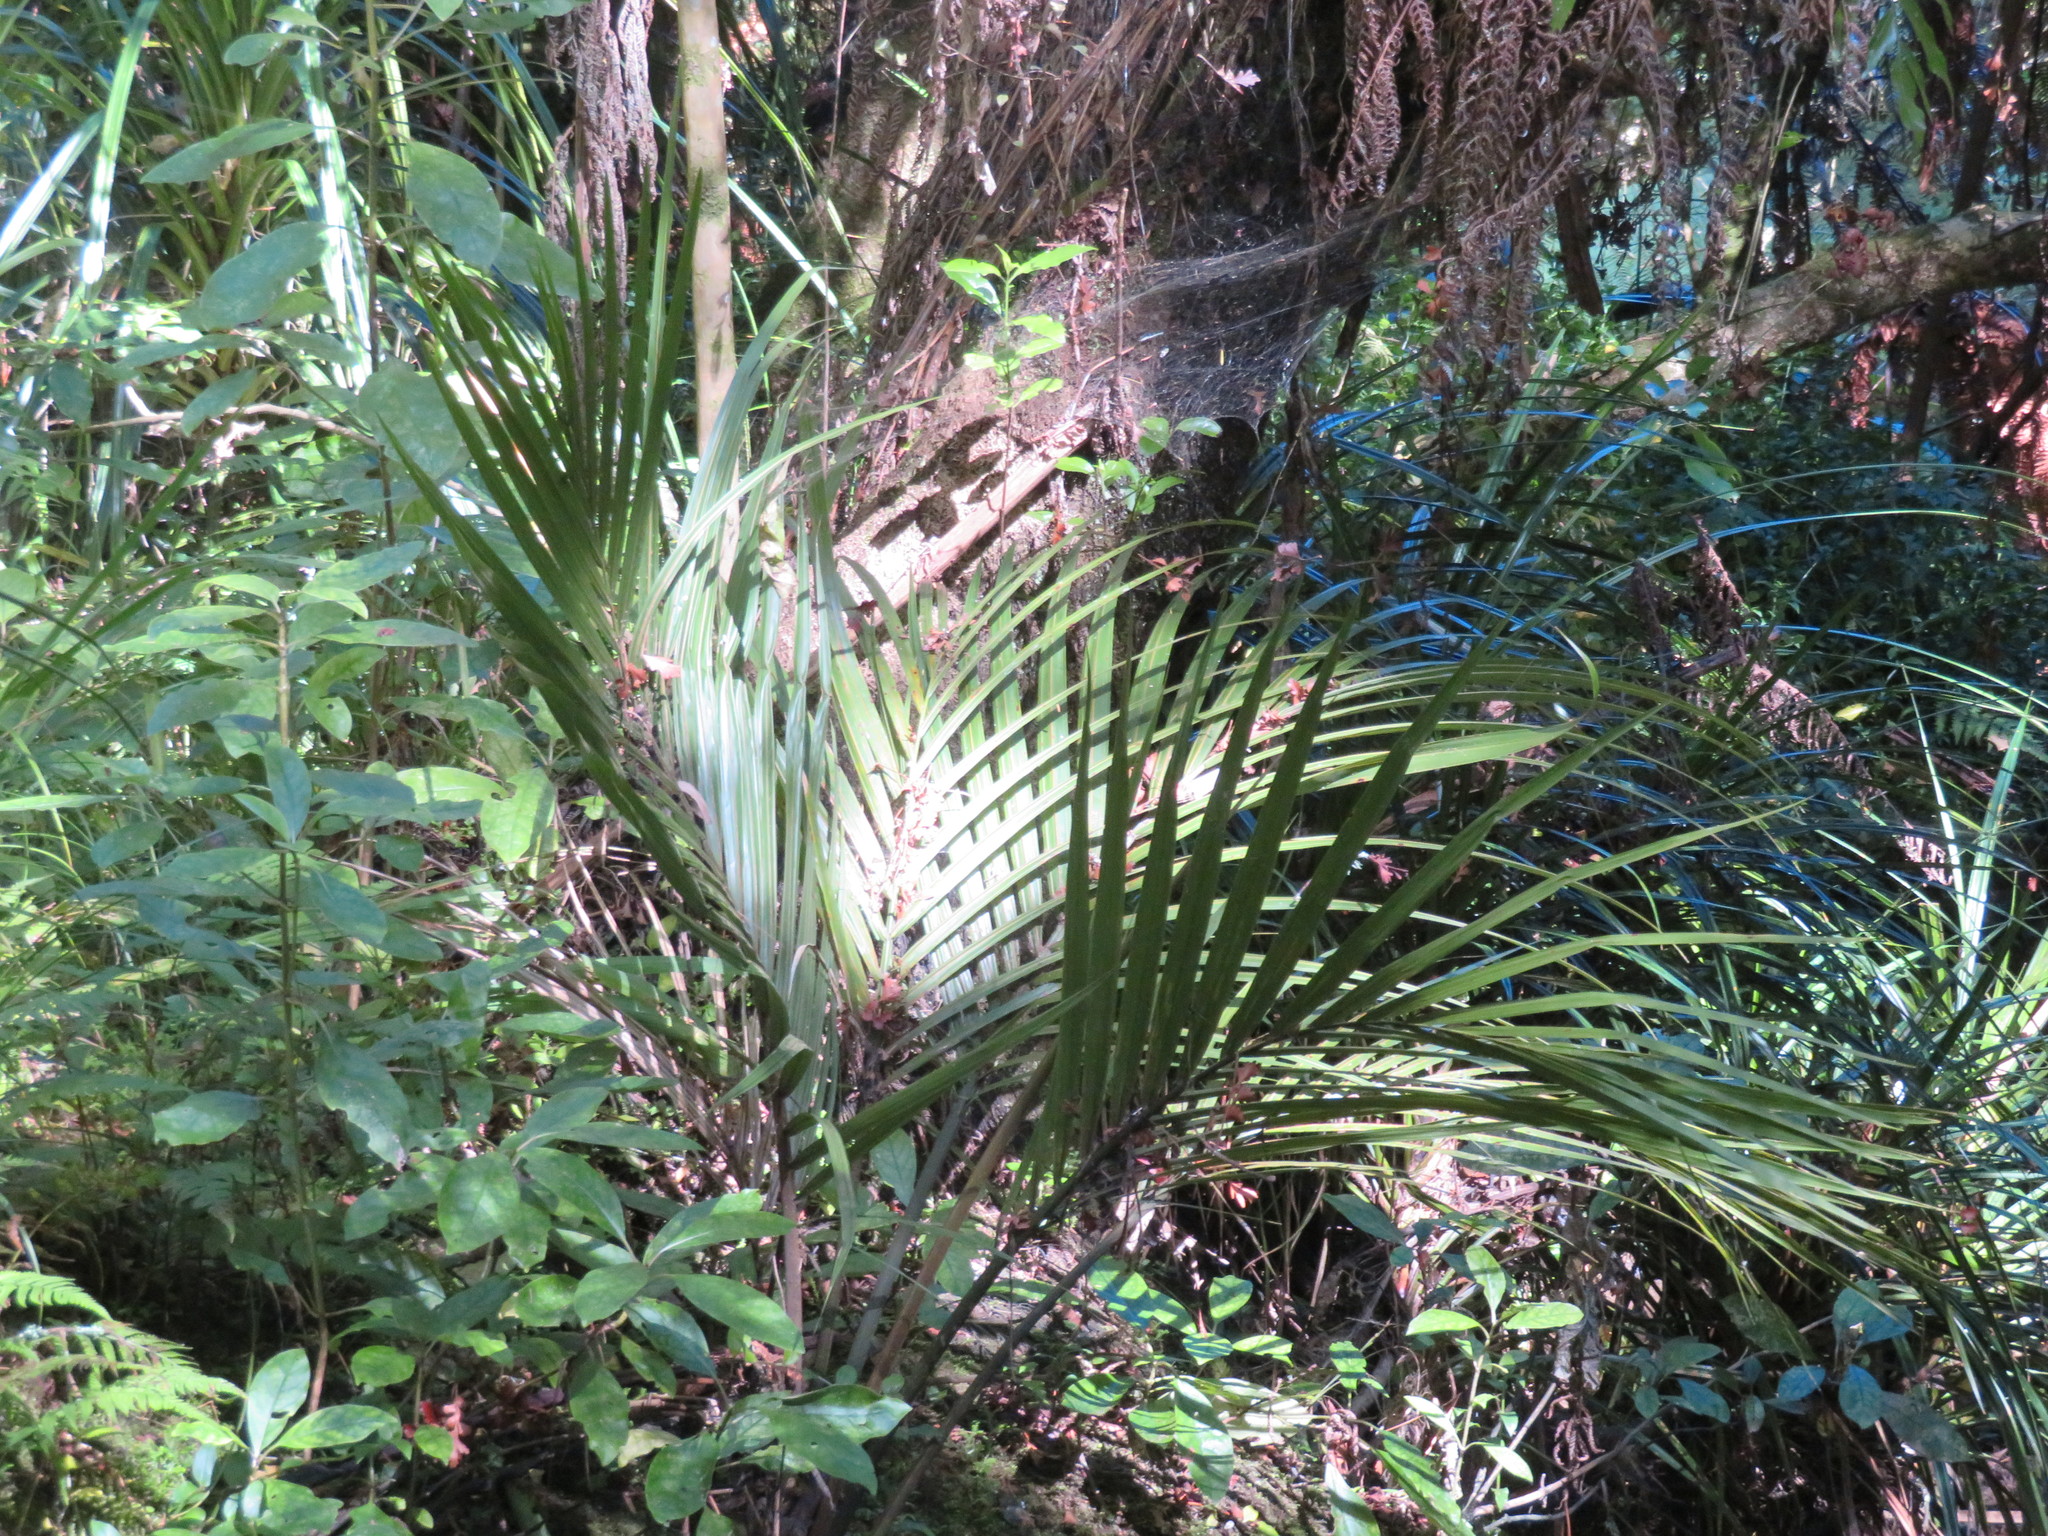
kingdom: Plantae
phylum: Tracheophyta
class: Liliopsida
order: Arecales
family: Arecaceae
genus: Rhopalostylis
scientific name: Rhopalostylis sapida
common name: Feather-duster palm
